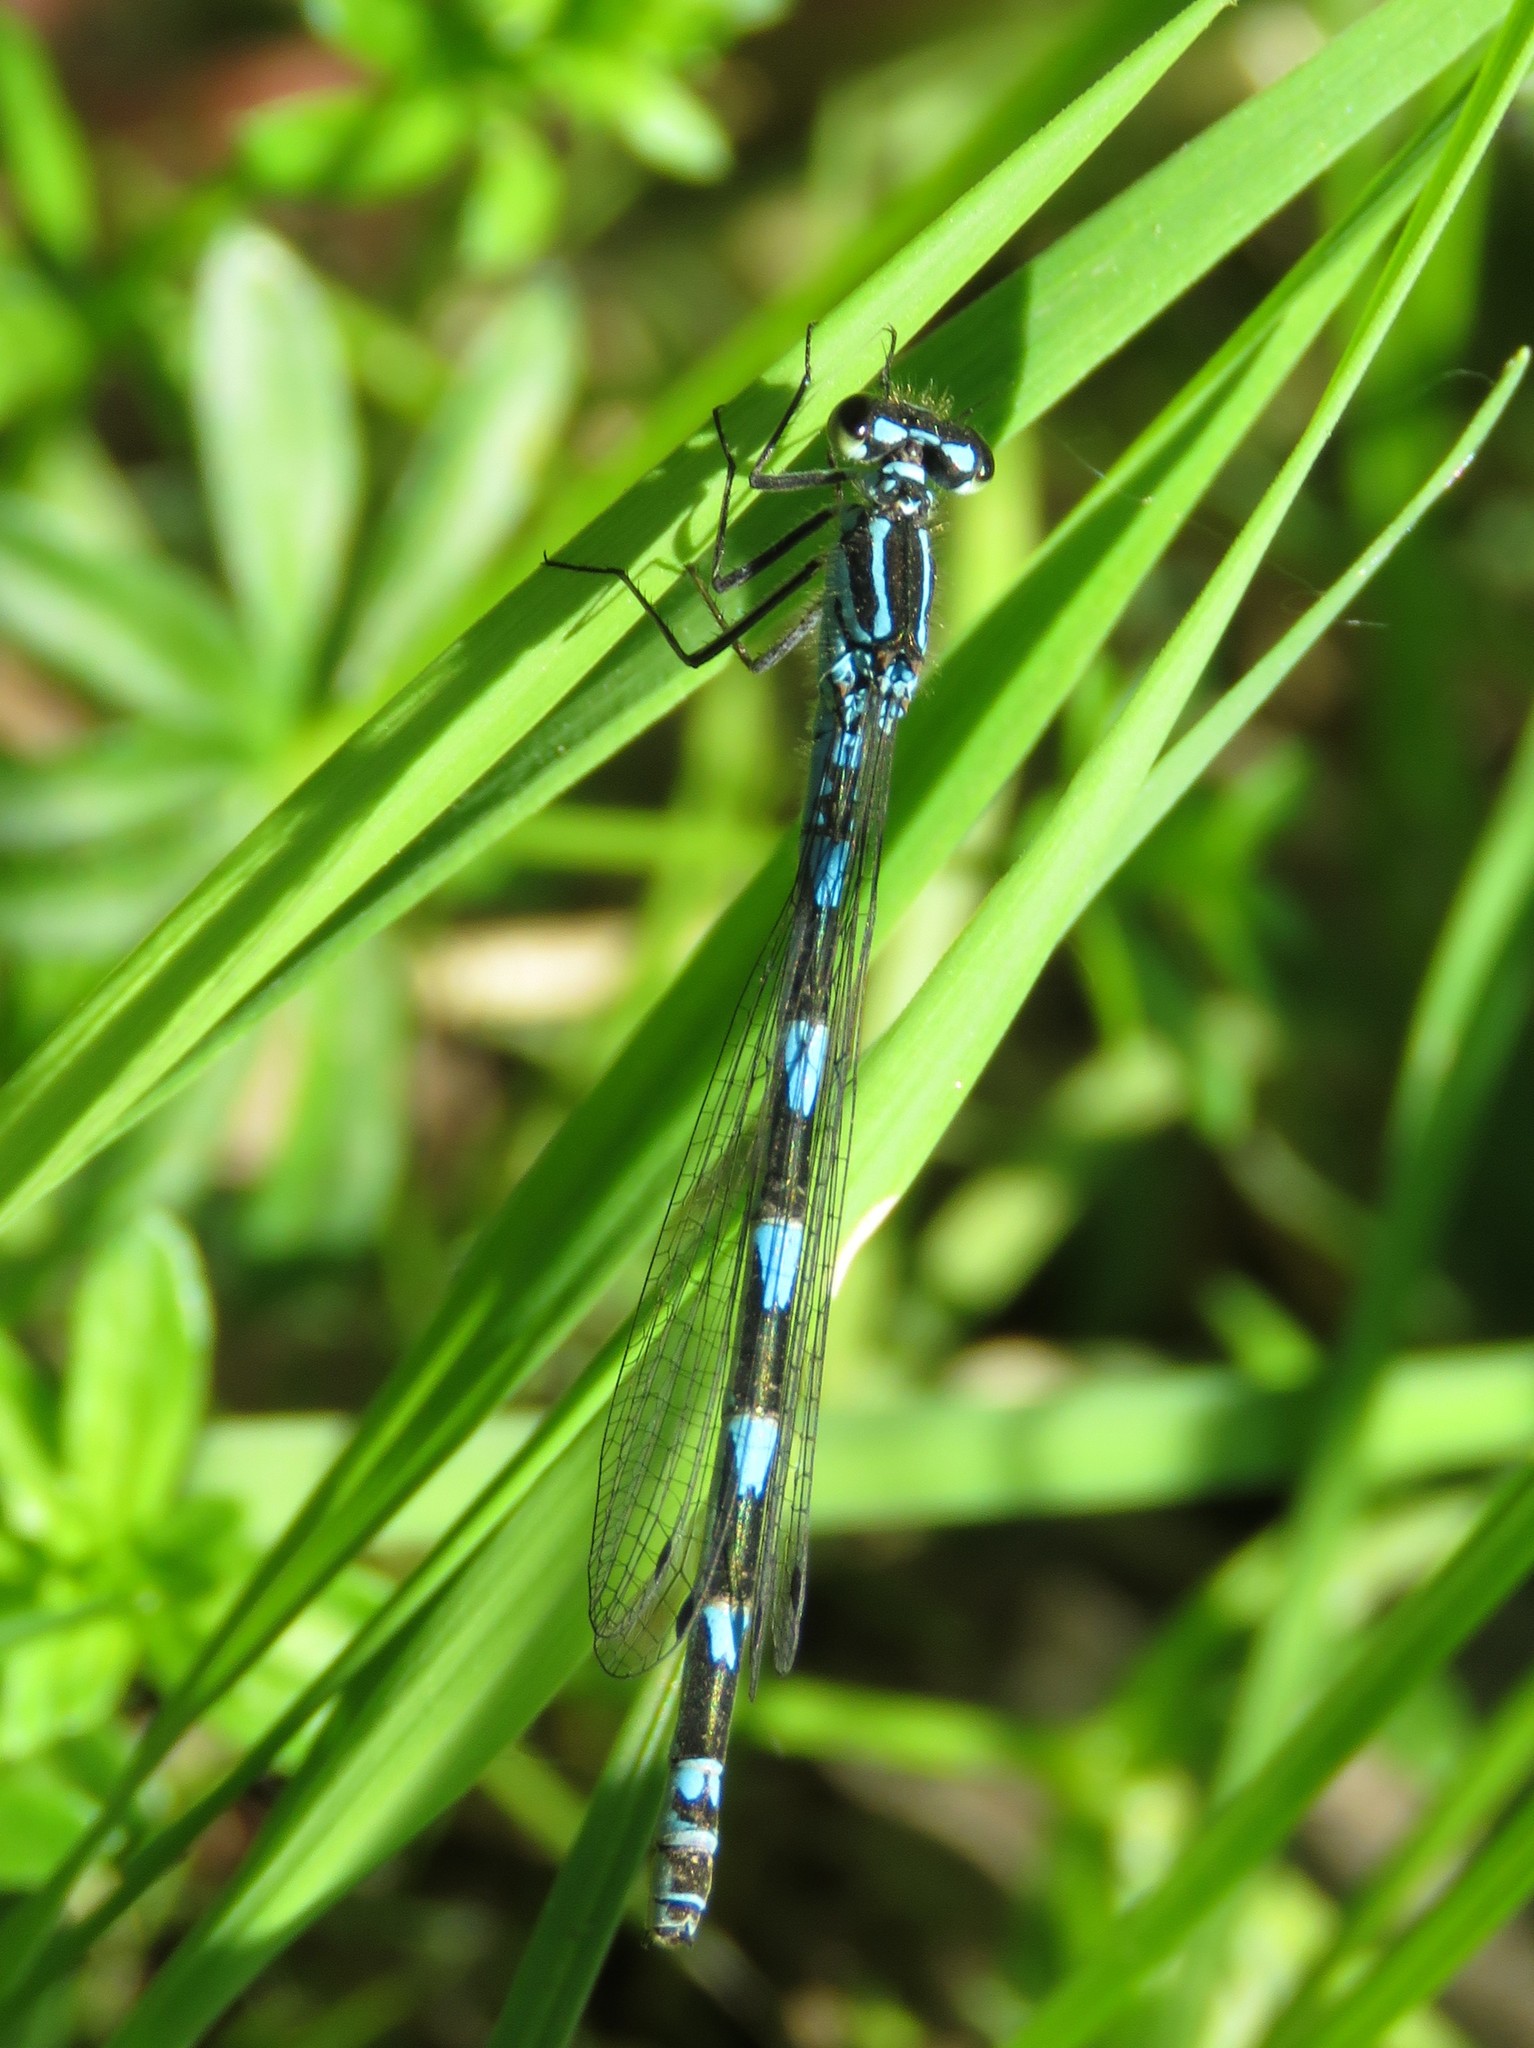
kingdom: Animalia
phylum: Arthropoda
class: Insecta
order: Odonata
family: Coenagrionidae
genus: Coenagrion
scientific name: Coenagrion pulchellum
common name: Variable bluet
